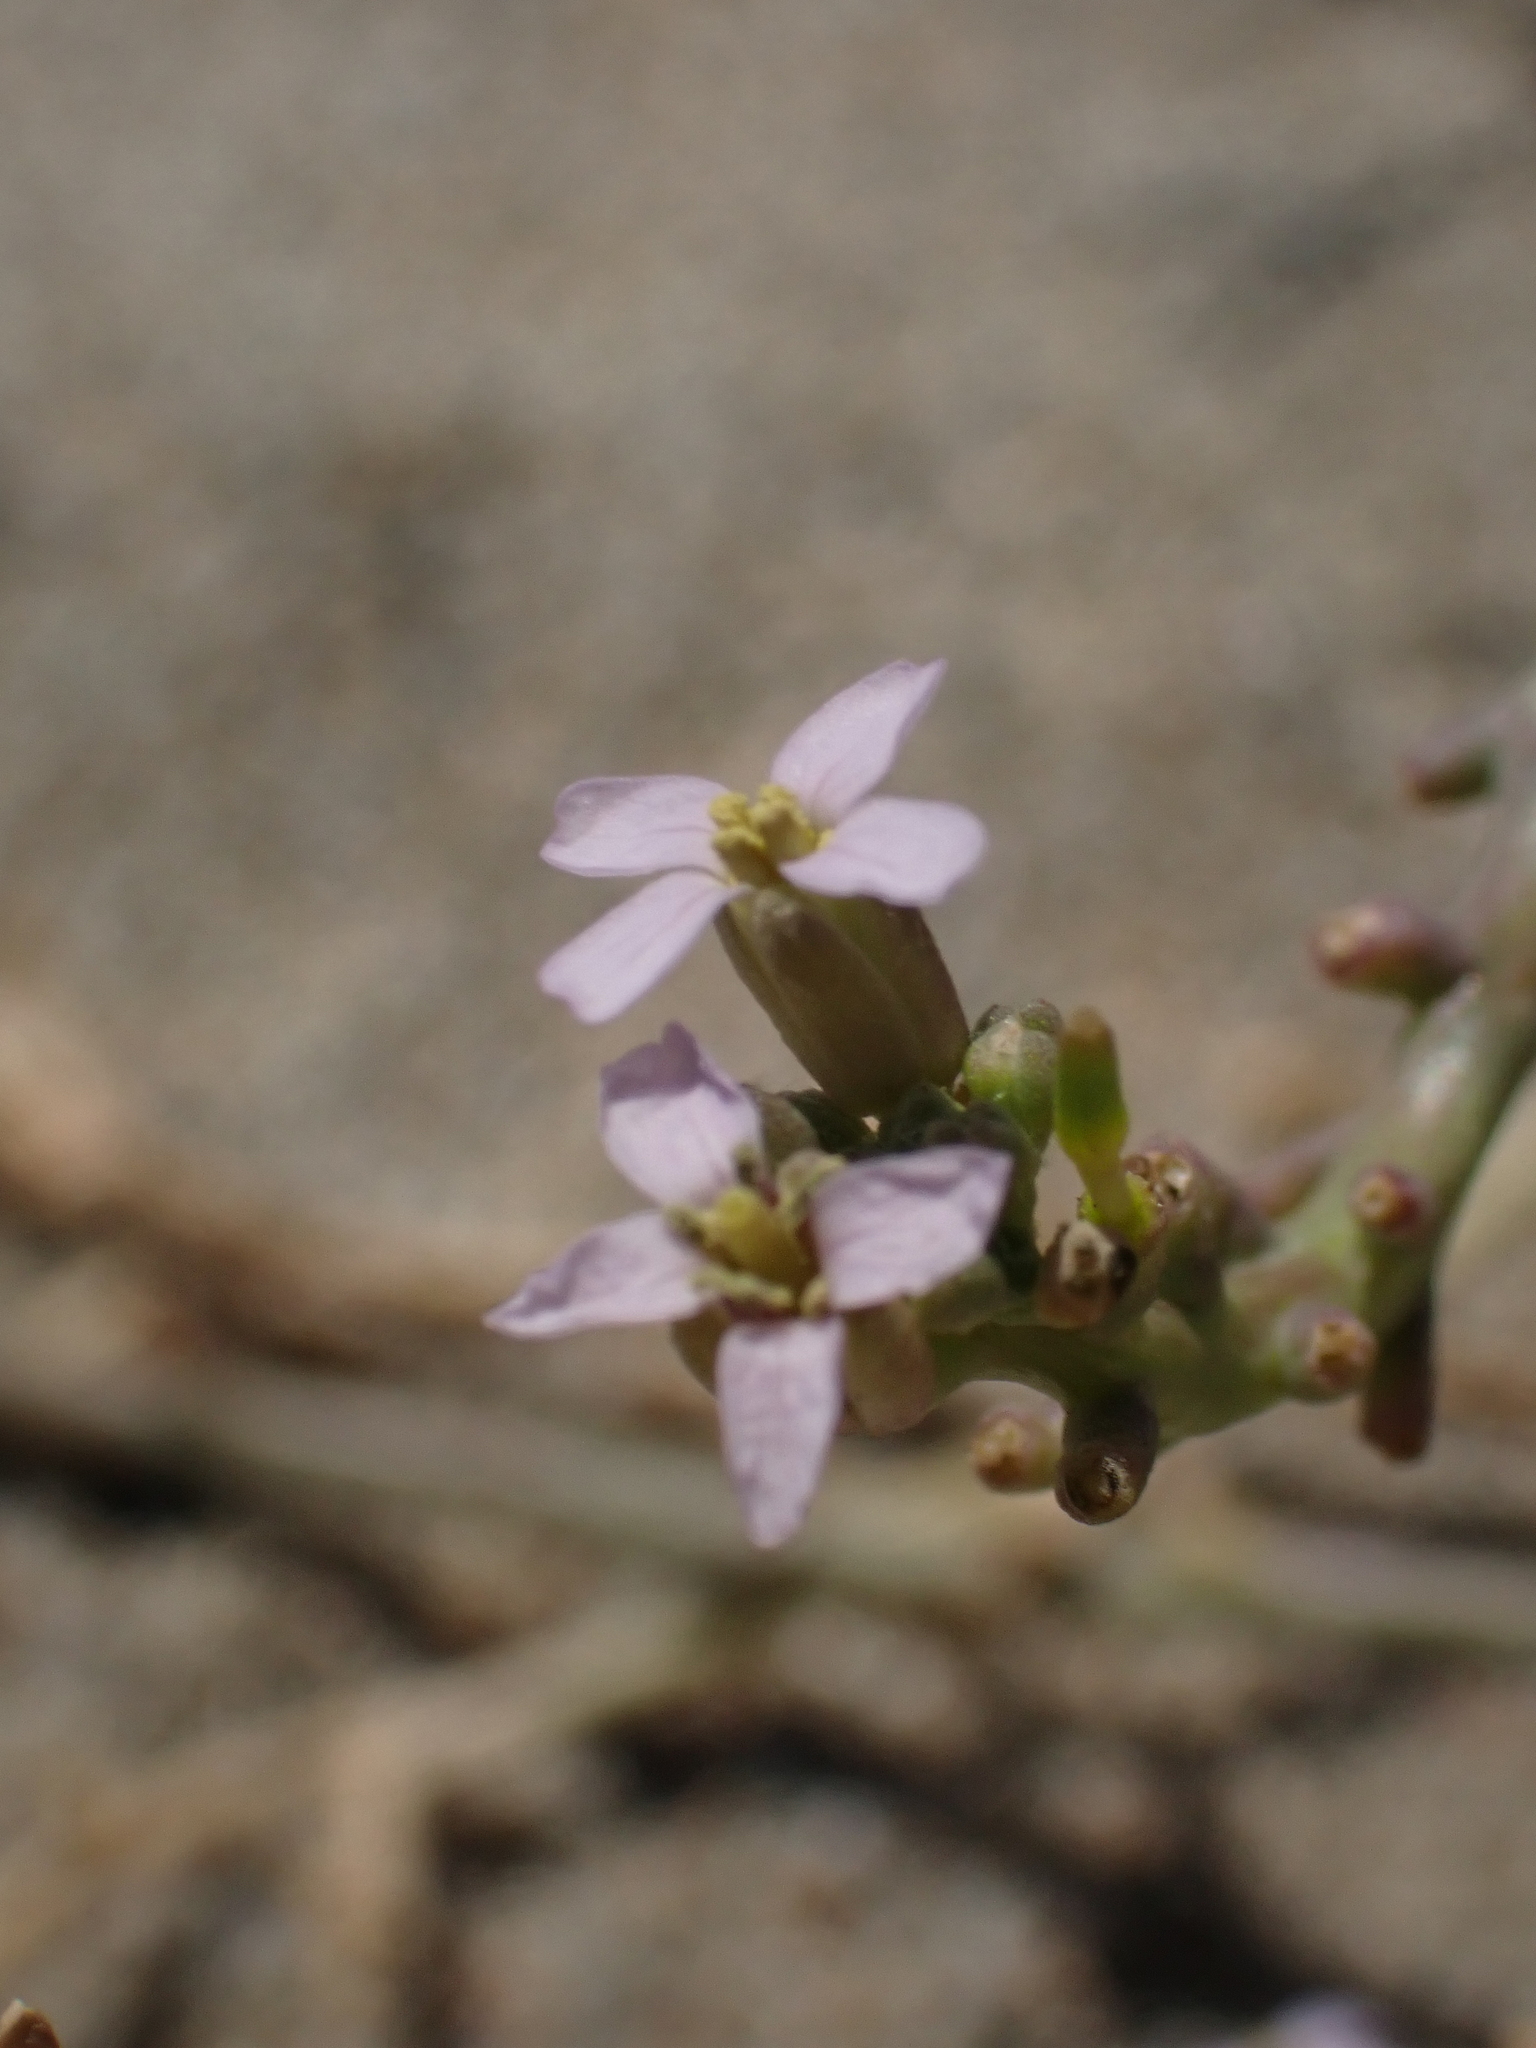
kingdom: Plantae
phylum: Tracheophyta
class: Magnoliopsida
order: Brassicales
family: Brassicaceae
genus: Cakile
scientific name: Cakile maritima
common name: Sea rocket
